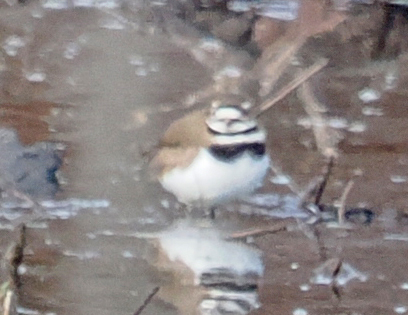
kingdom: Animalia
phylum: Chordata
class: Aves
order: Charadriiformes
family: Charadriidae
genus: Charadrius
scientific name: Charadrius vociferus
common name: Killdeer
